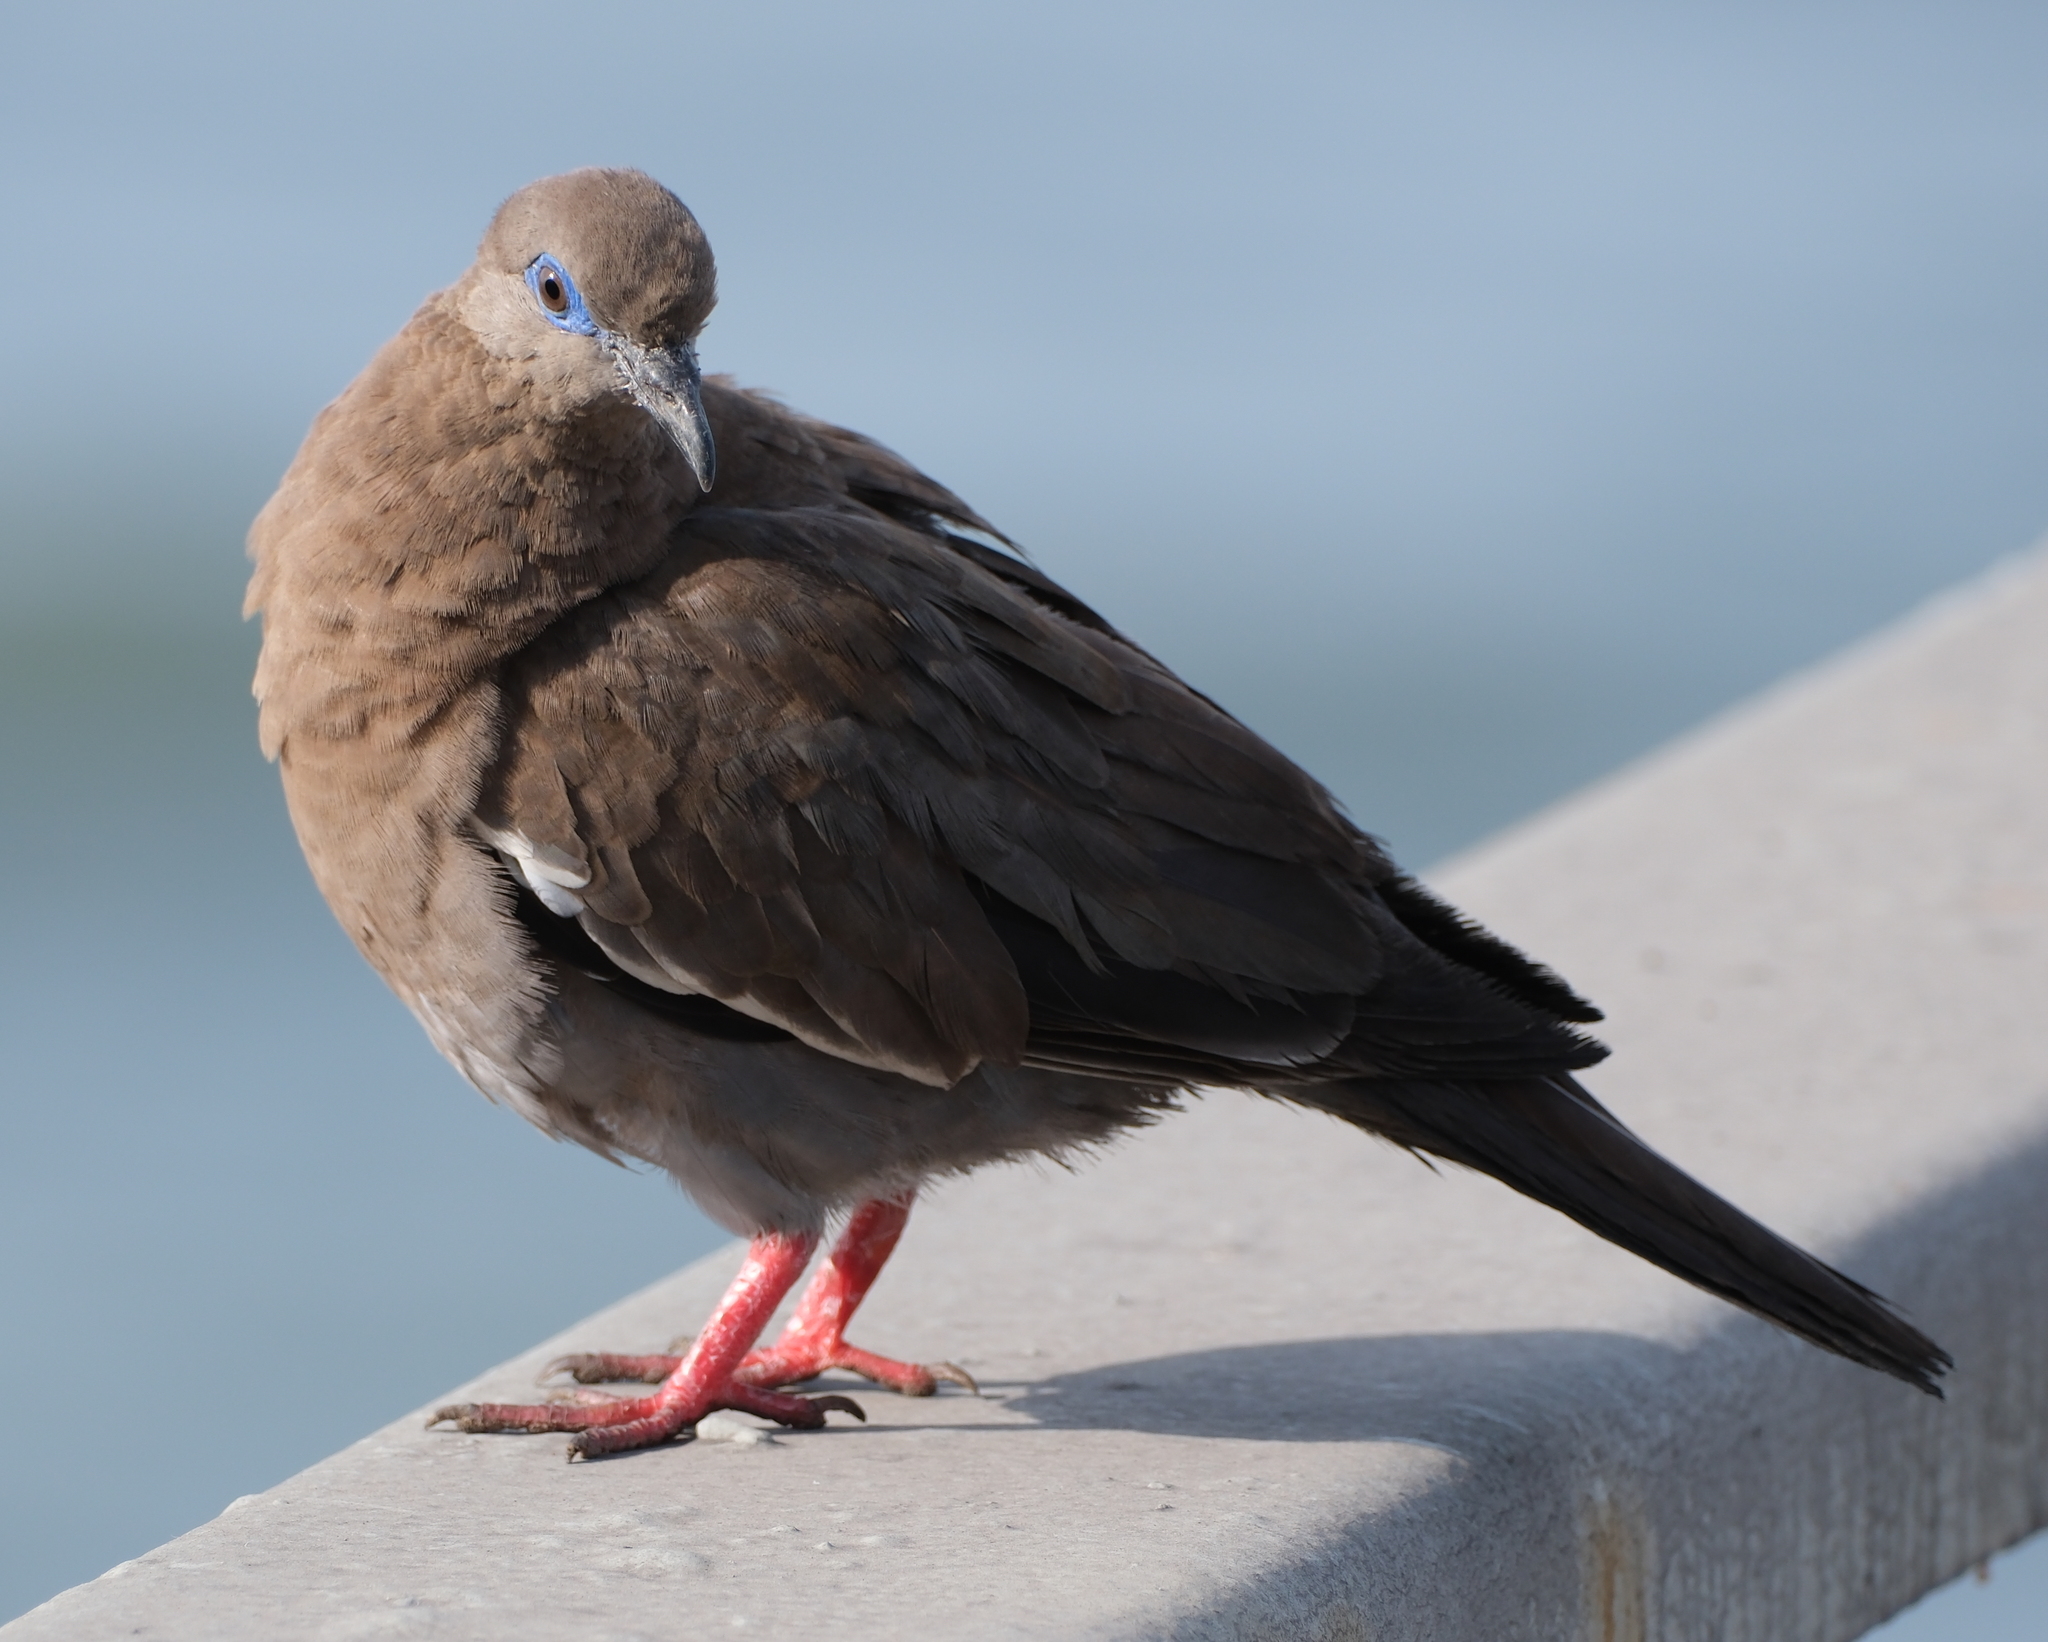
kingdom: Animalia
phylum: Chordata
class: Aves
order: Columbiformes
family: Columbidae
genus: Zenaida
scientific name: Zenaida meloda
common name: West peruvian dove
